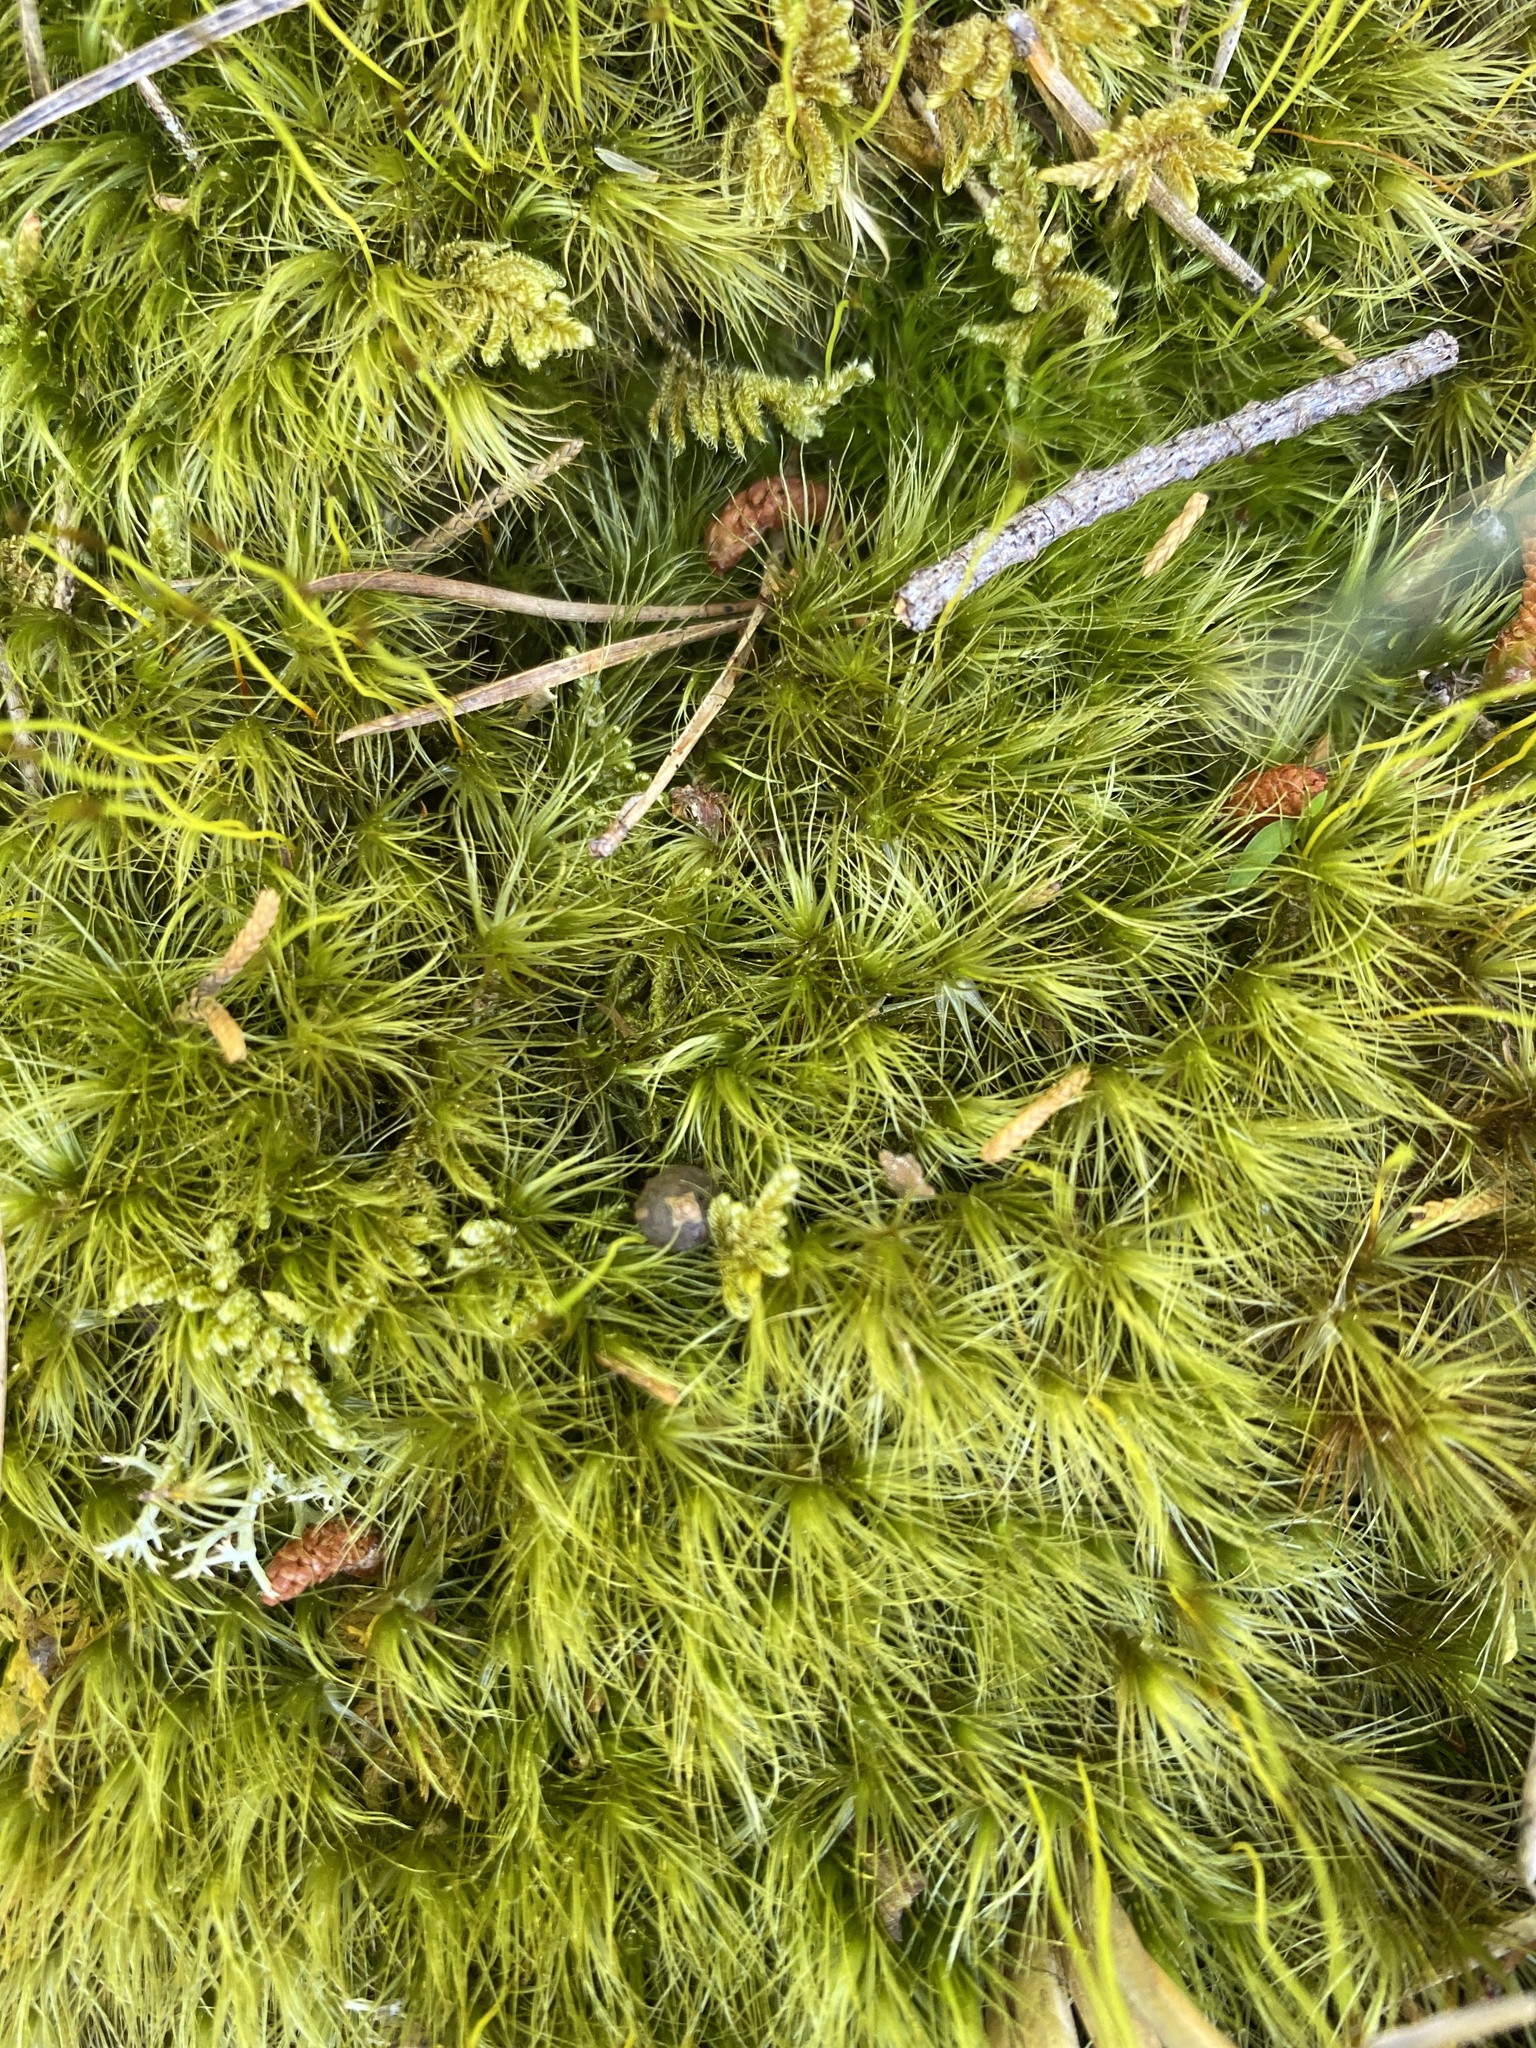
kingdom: Plantae
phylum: Bryophyta
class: Bryopsida
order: Dicranales
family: Dicranaceae
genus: Dicranum
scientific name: Dicranum scoparium
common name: Broom fork-moss
